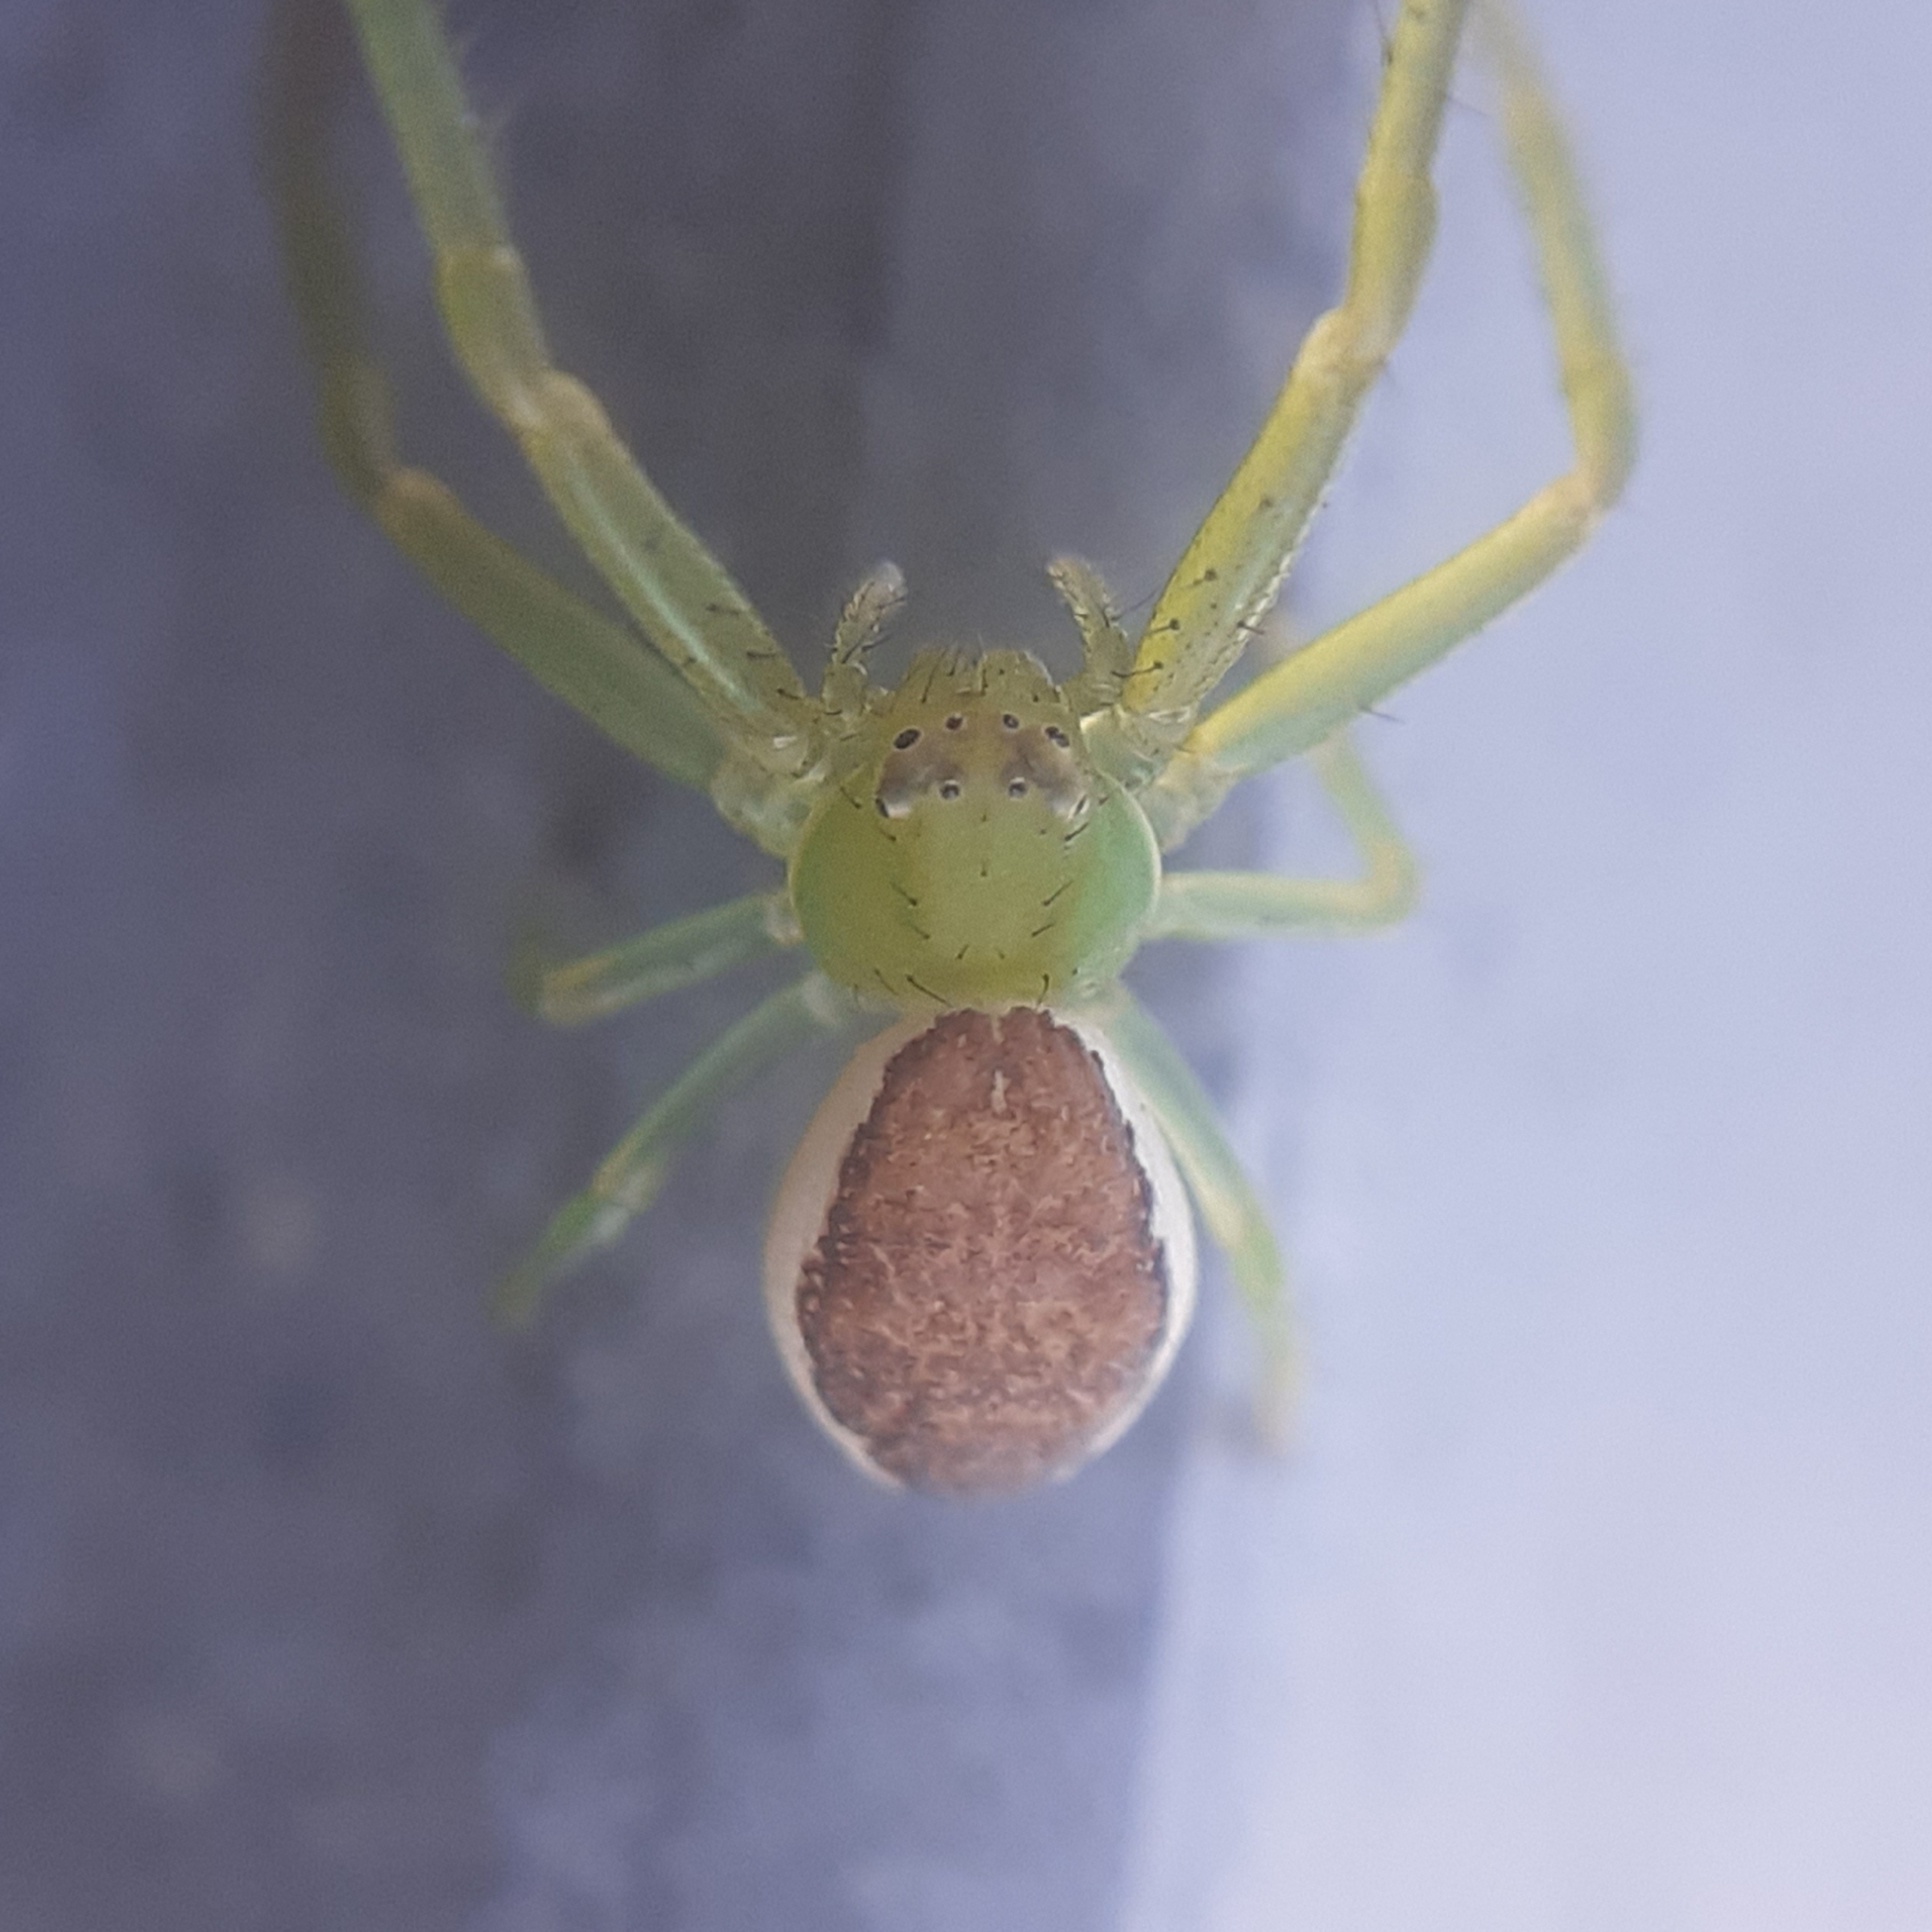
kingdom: Animalia
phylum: Arthropoda
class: Arachnida
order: Araneae
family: Thomisidae
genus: Diaea
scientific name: Diaea dorsata
